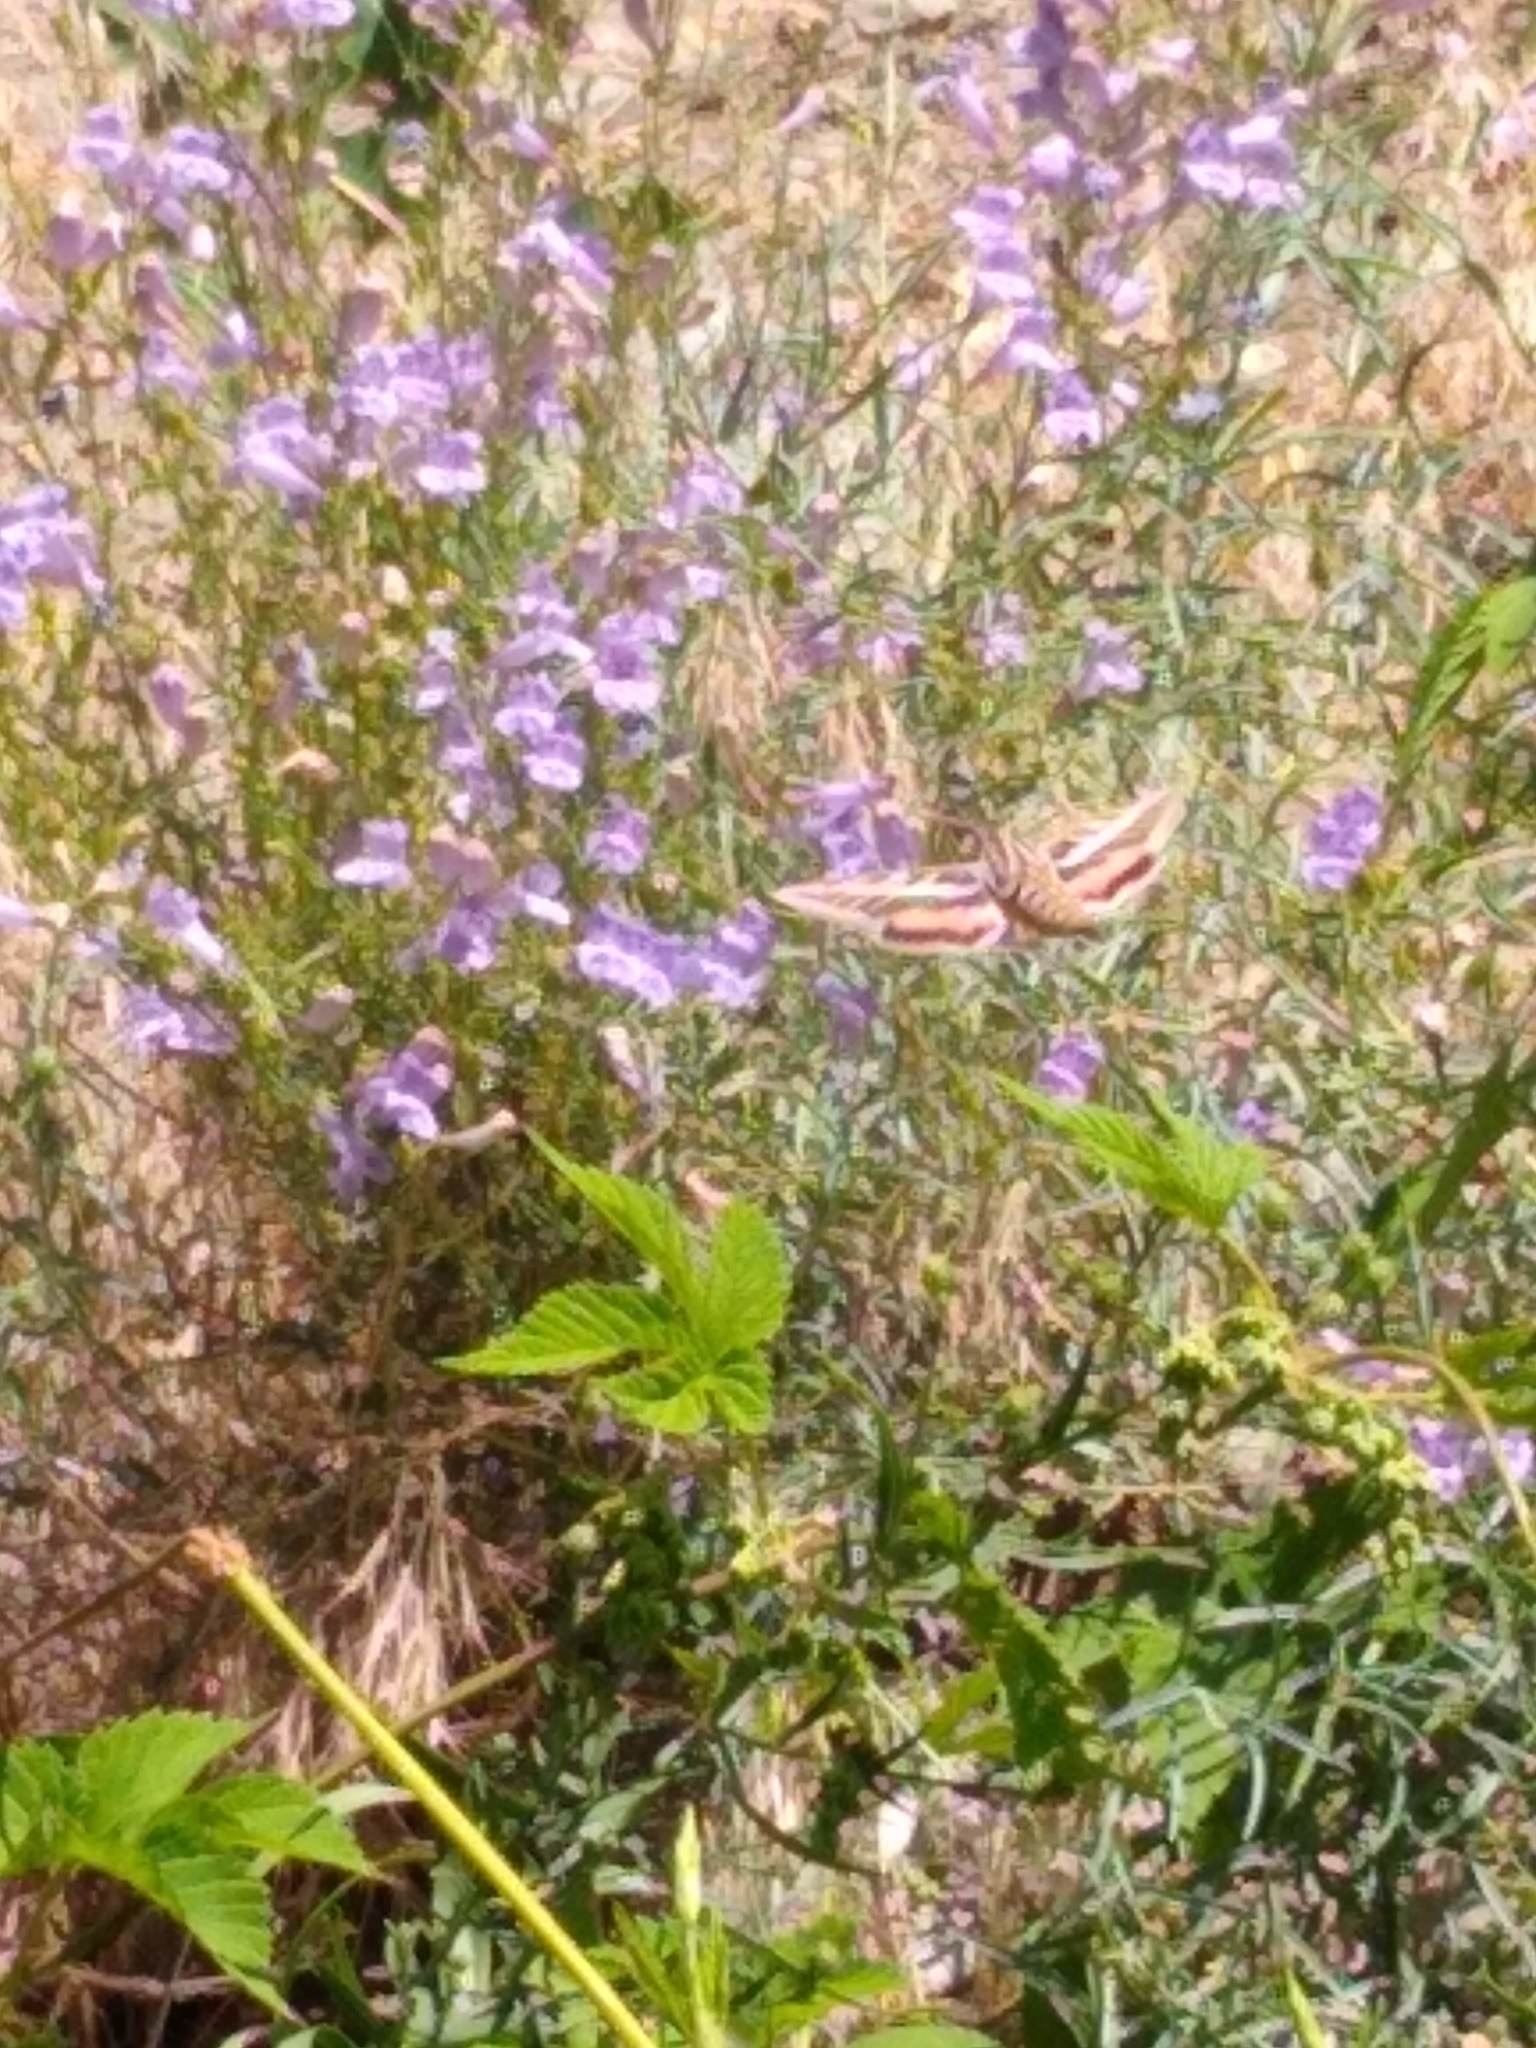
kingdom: Animalia
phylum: Arthropoda
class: Insecta
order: Lepidoptera
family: Sphingidae
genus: Hyles
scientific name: Hyles lineata
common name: White-lined sphinx
